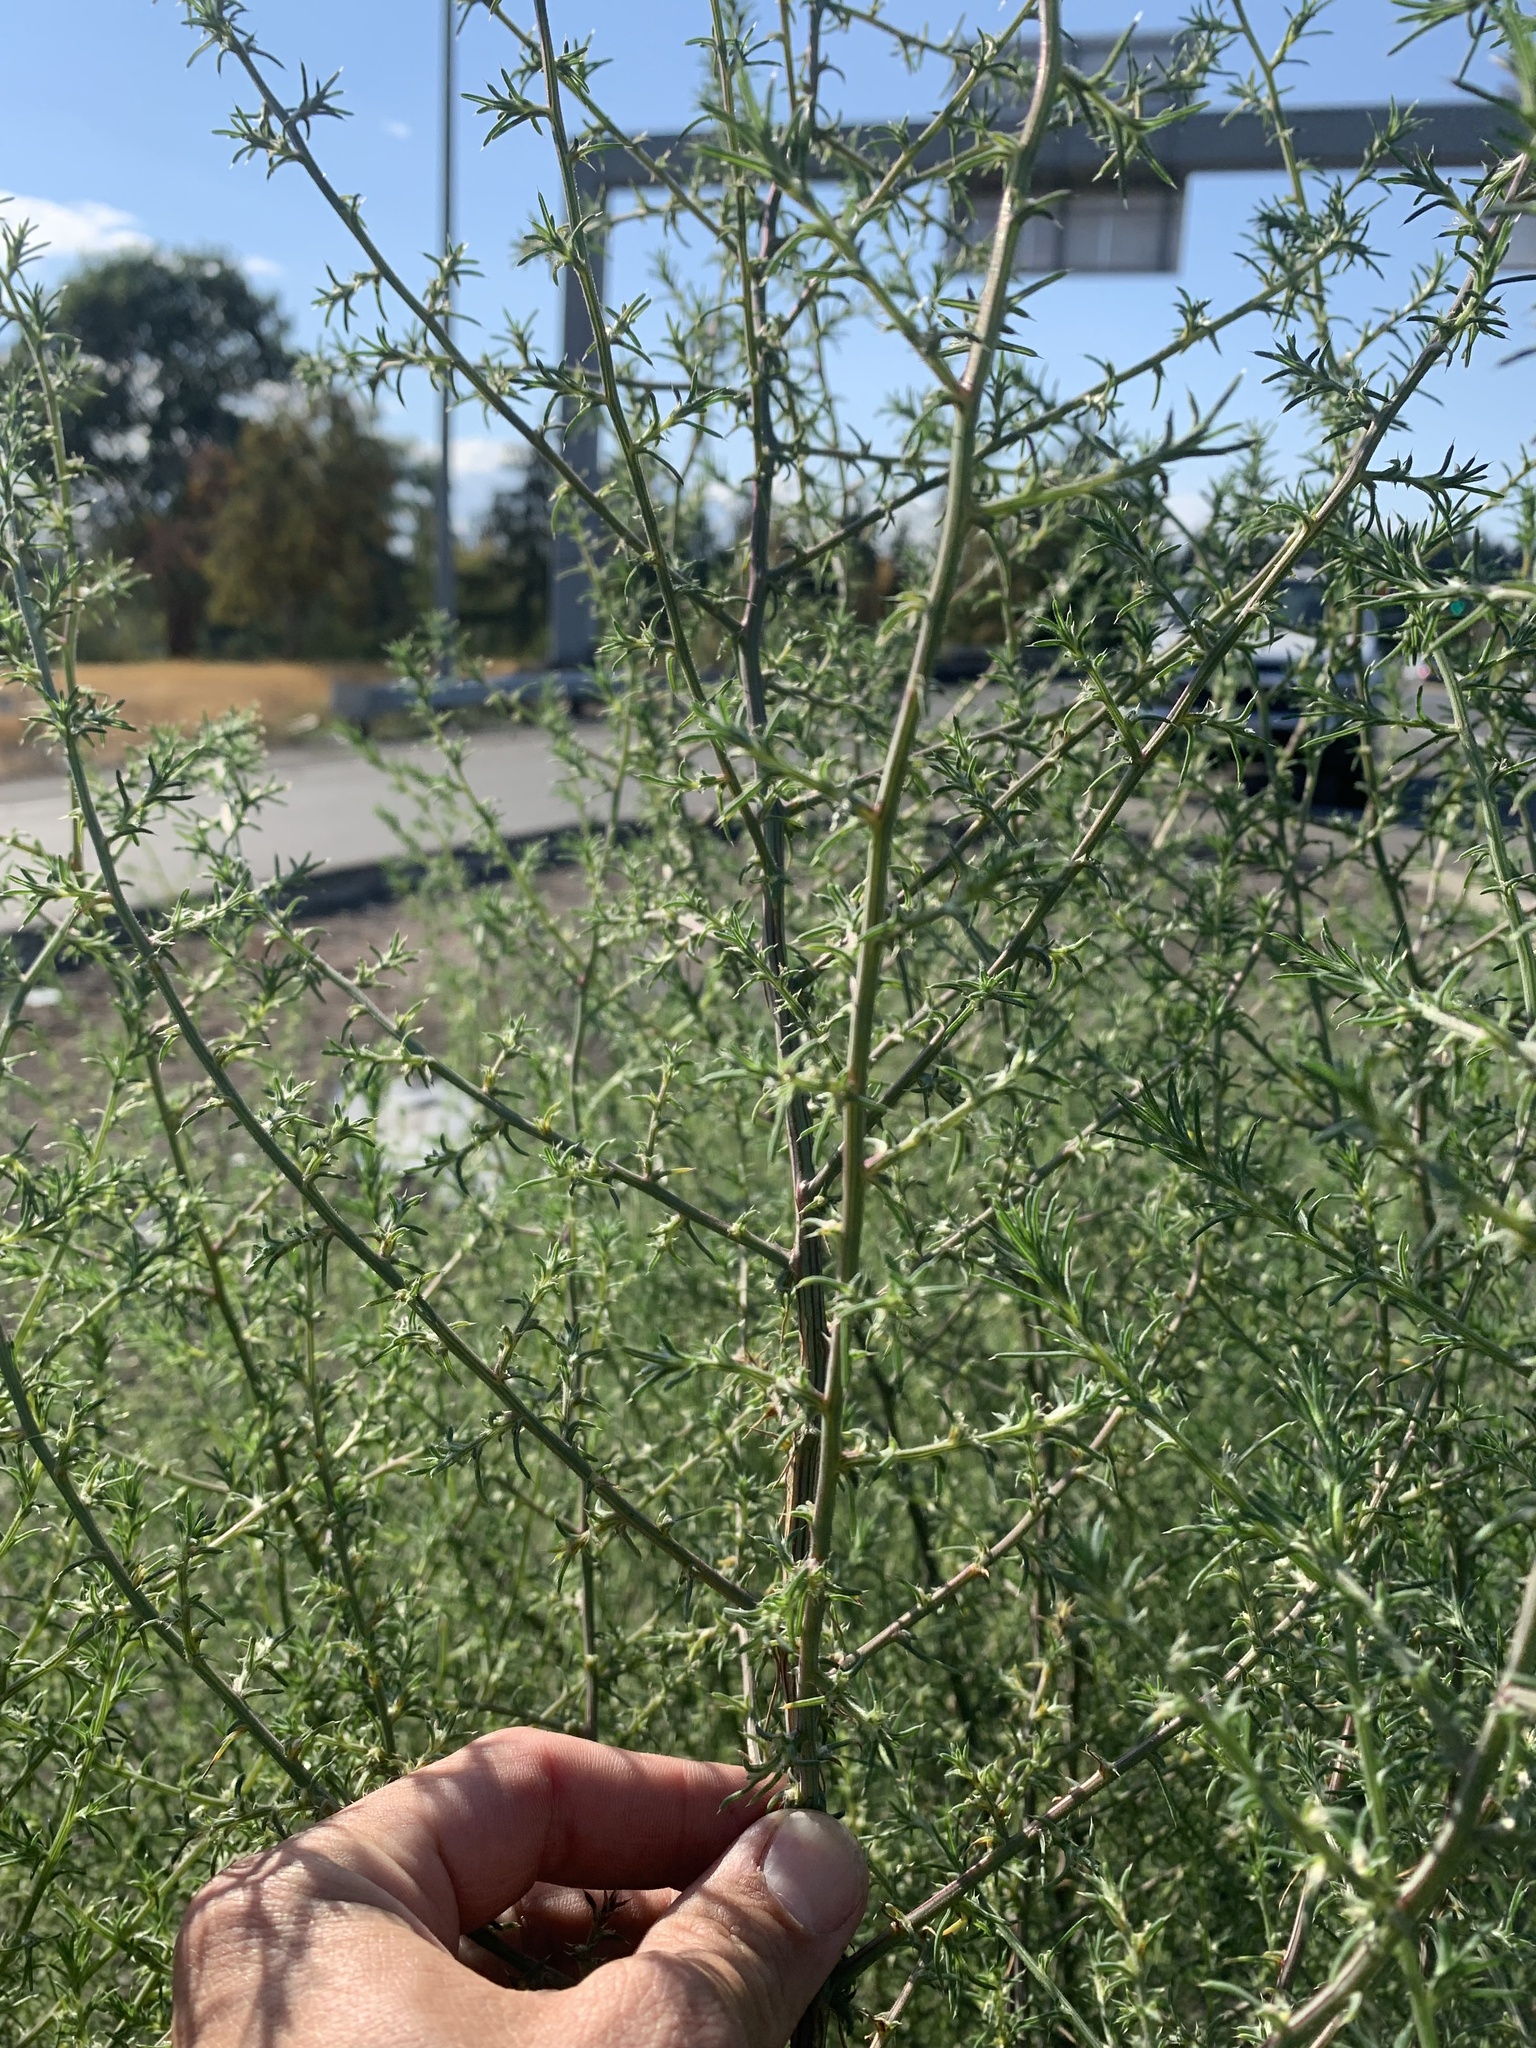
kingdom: Plantae
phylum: Tracheophyta
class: Magnoliopsida
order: Caryophyllales
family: Amaranthaceae
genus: Salsola
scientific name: Salsola tragus
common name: Prickly russian thistle
